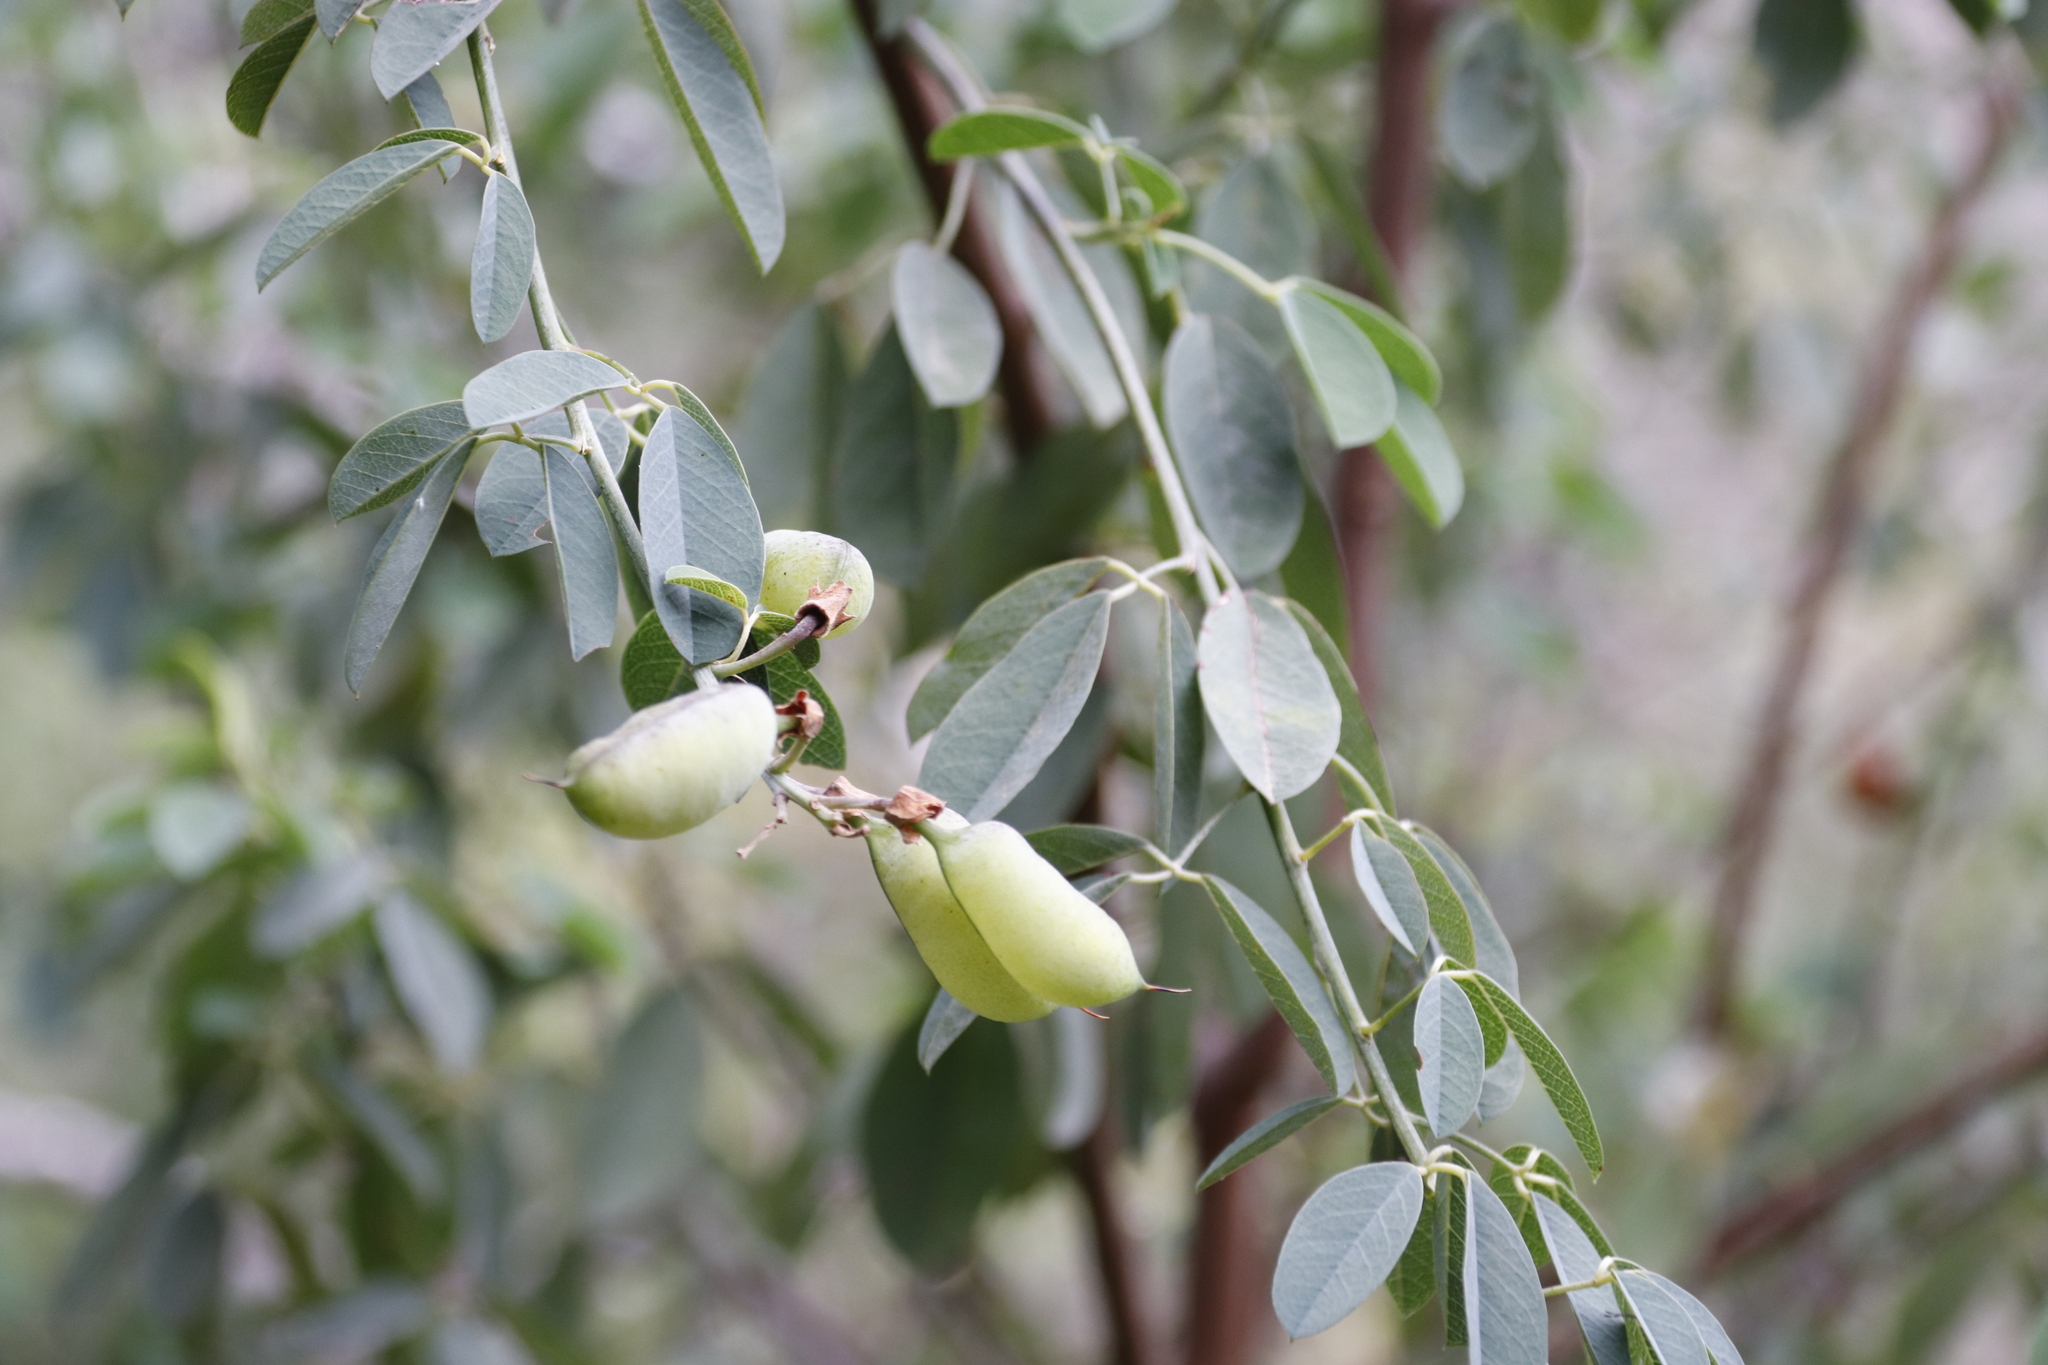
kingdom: Plantae
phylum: Tracheophyta
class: Magnoliopsida
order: Fabales
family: Fabaceae
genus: Hypocalyptus
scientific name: Hypocalyptus sophoroides
